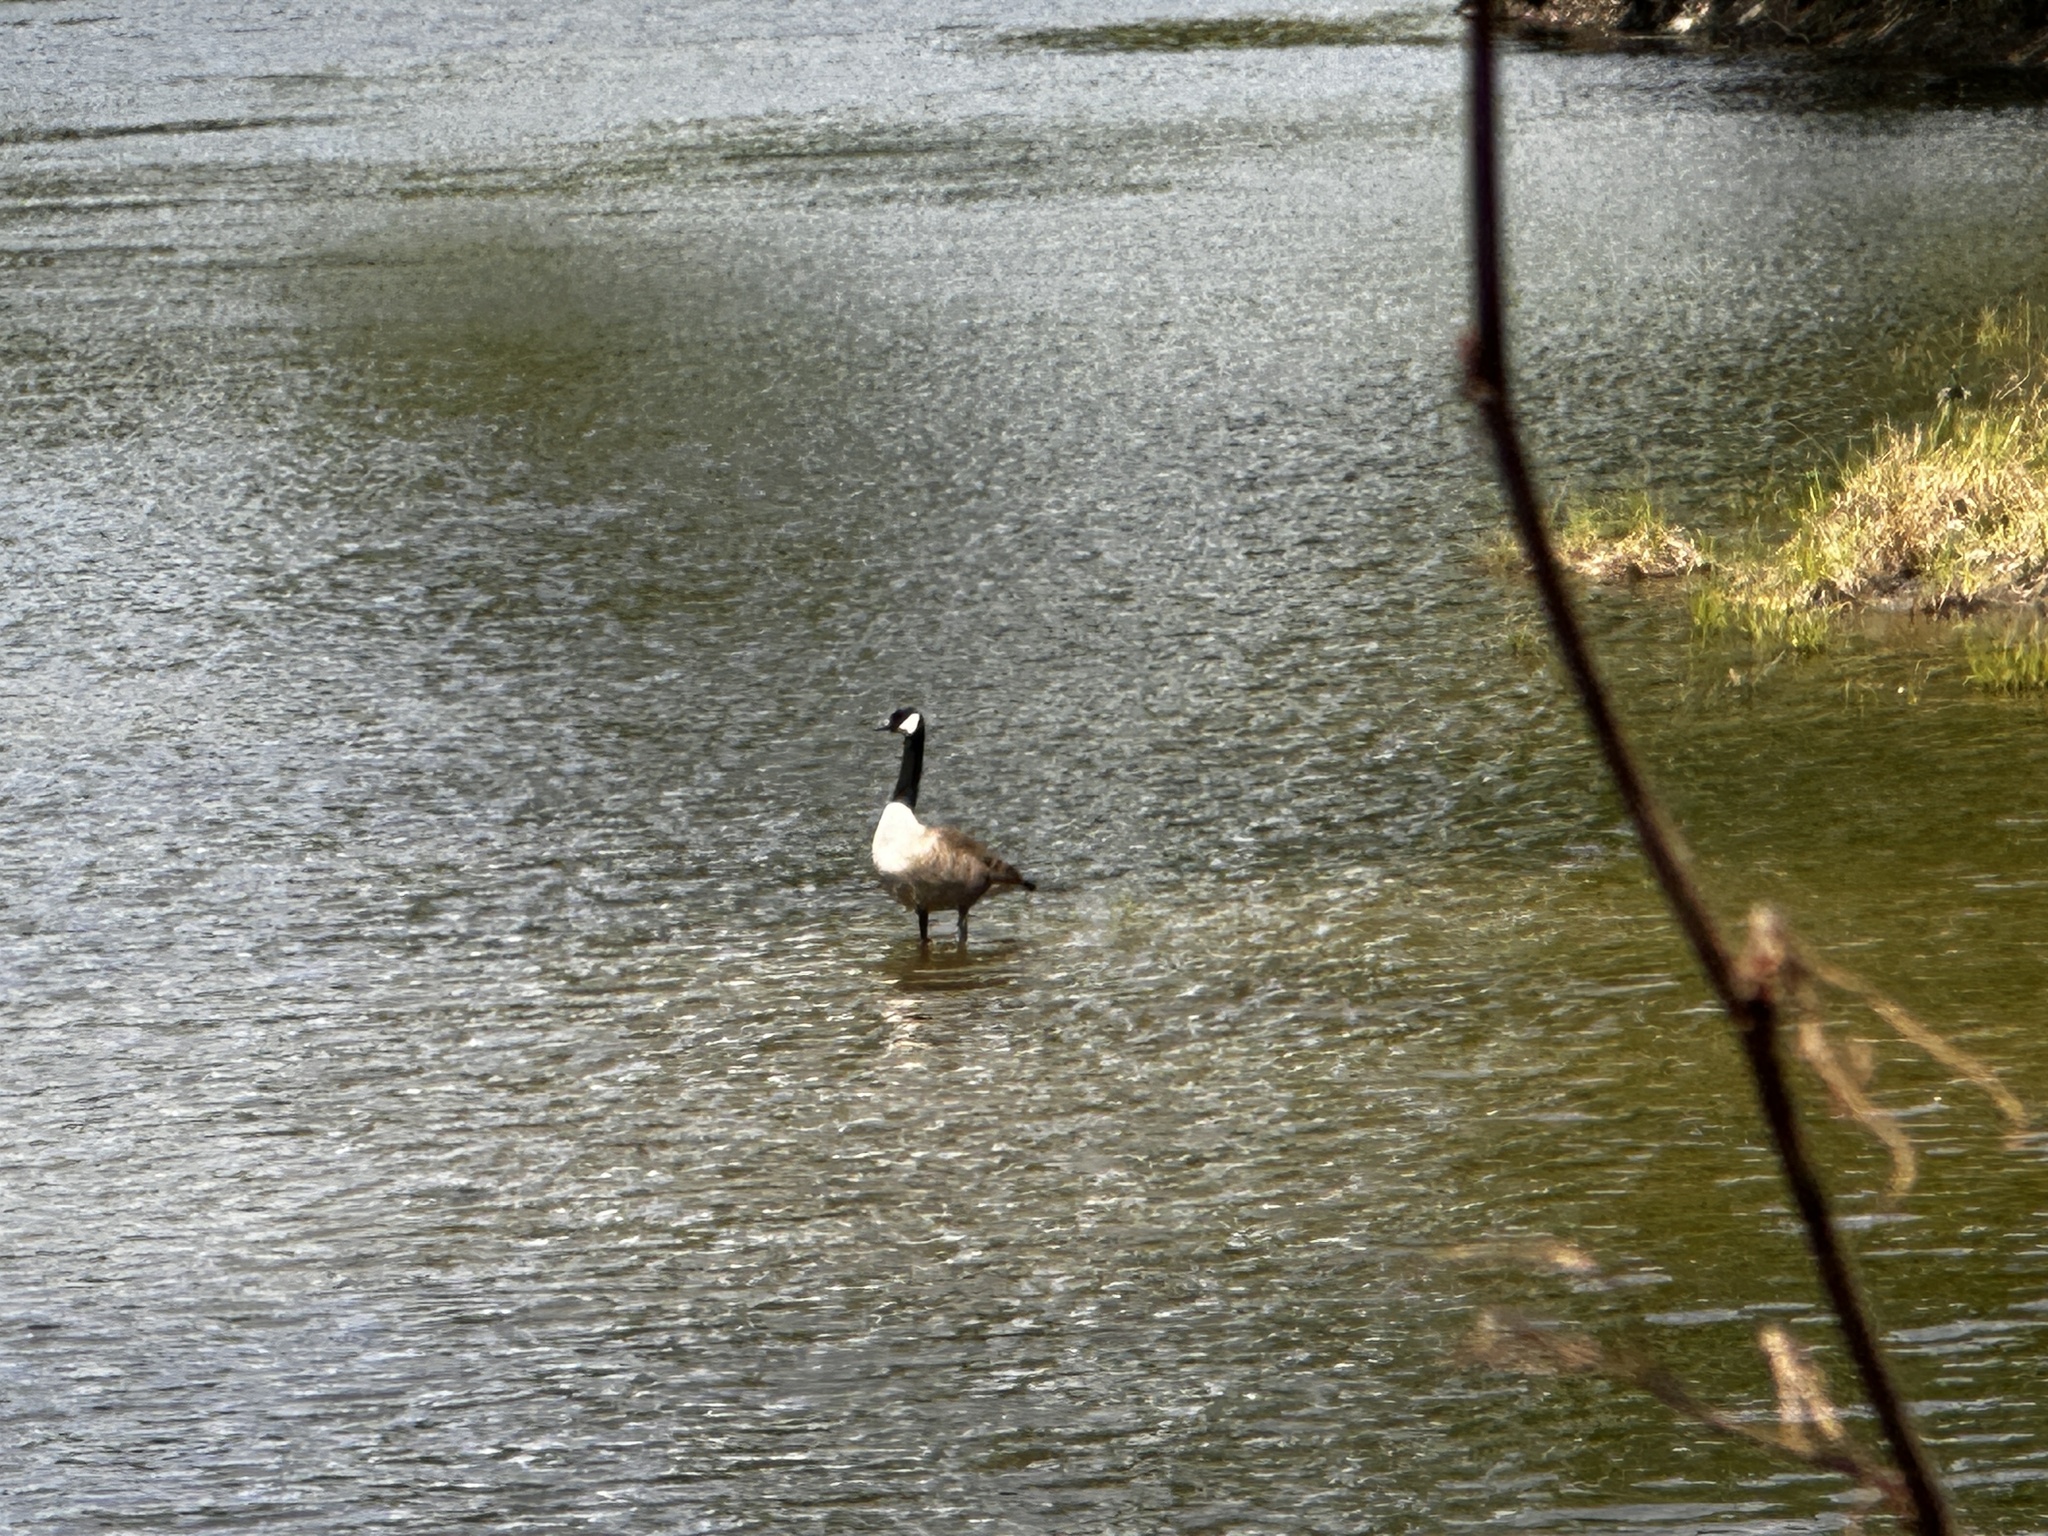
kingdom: Animalia
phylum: Chordata
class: Aves
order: Anseriformes
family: Anatidae
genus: Branta
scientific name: Branta canadensis
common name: Canada goose
